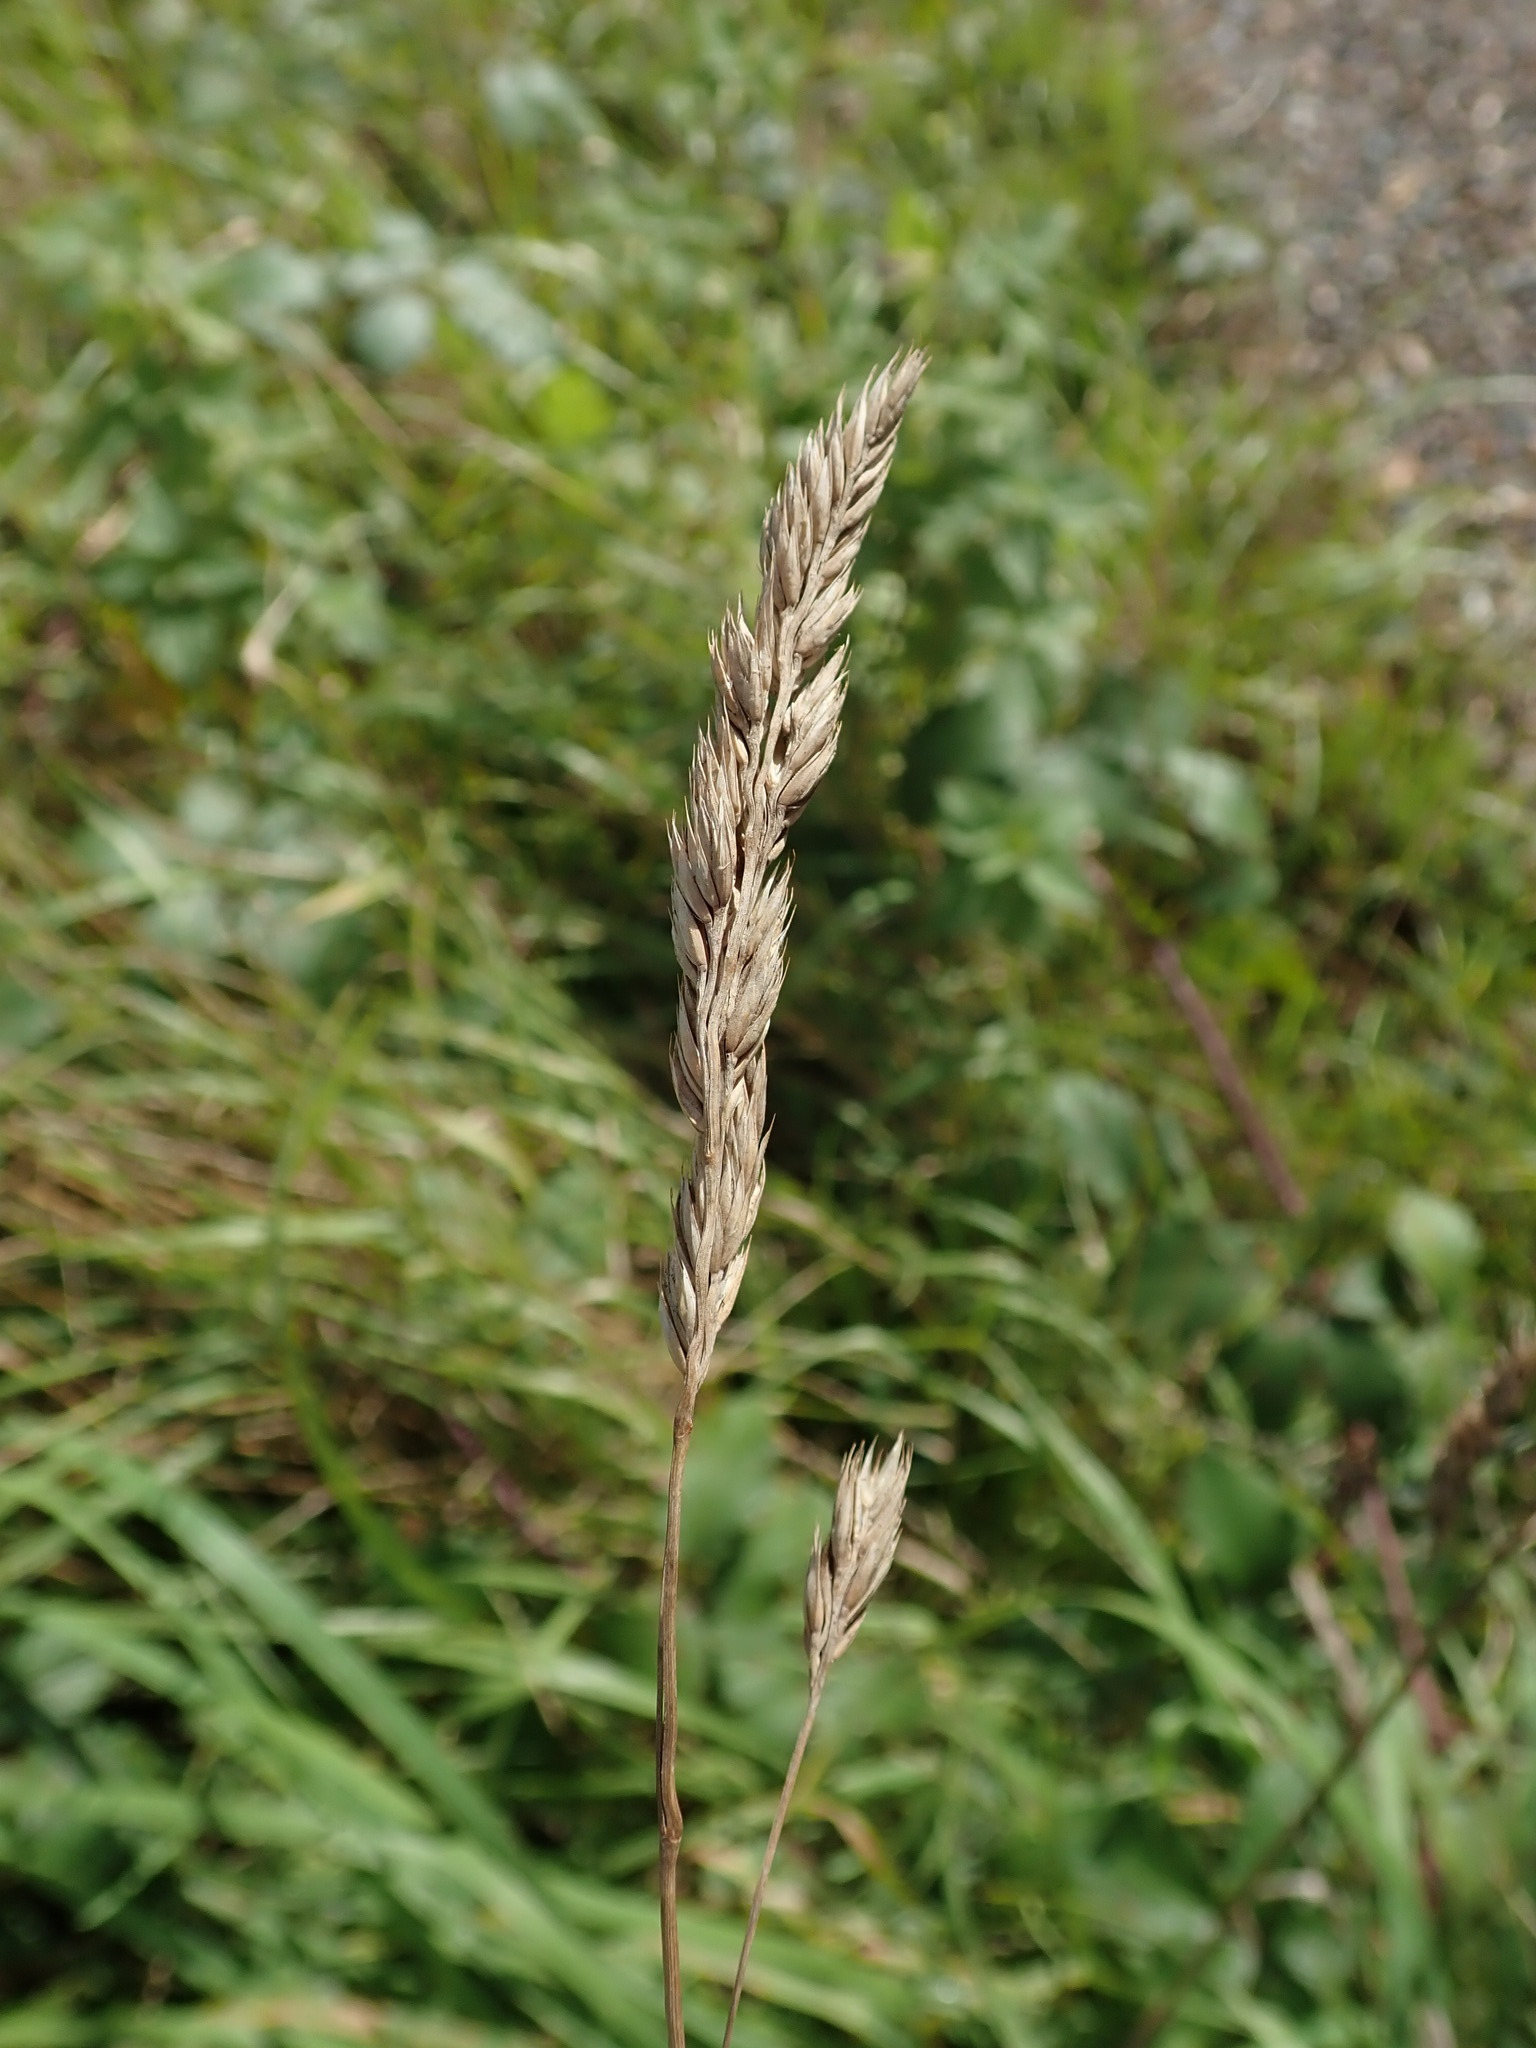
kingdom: Plantae
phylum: Tracheophyta
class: Liliopsida
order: Poales
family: Poaceae
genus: Dactylis
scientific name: Dactylis glomerata
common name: Orchardgrass
